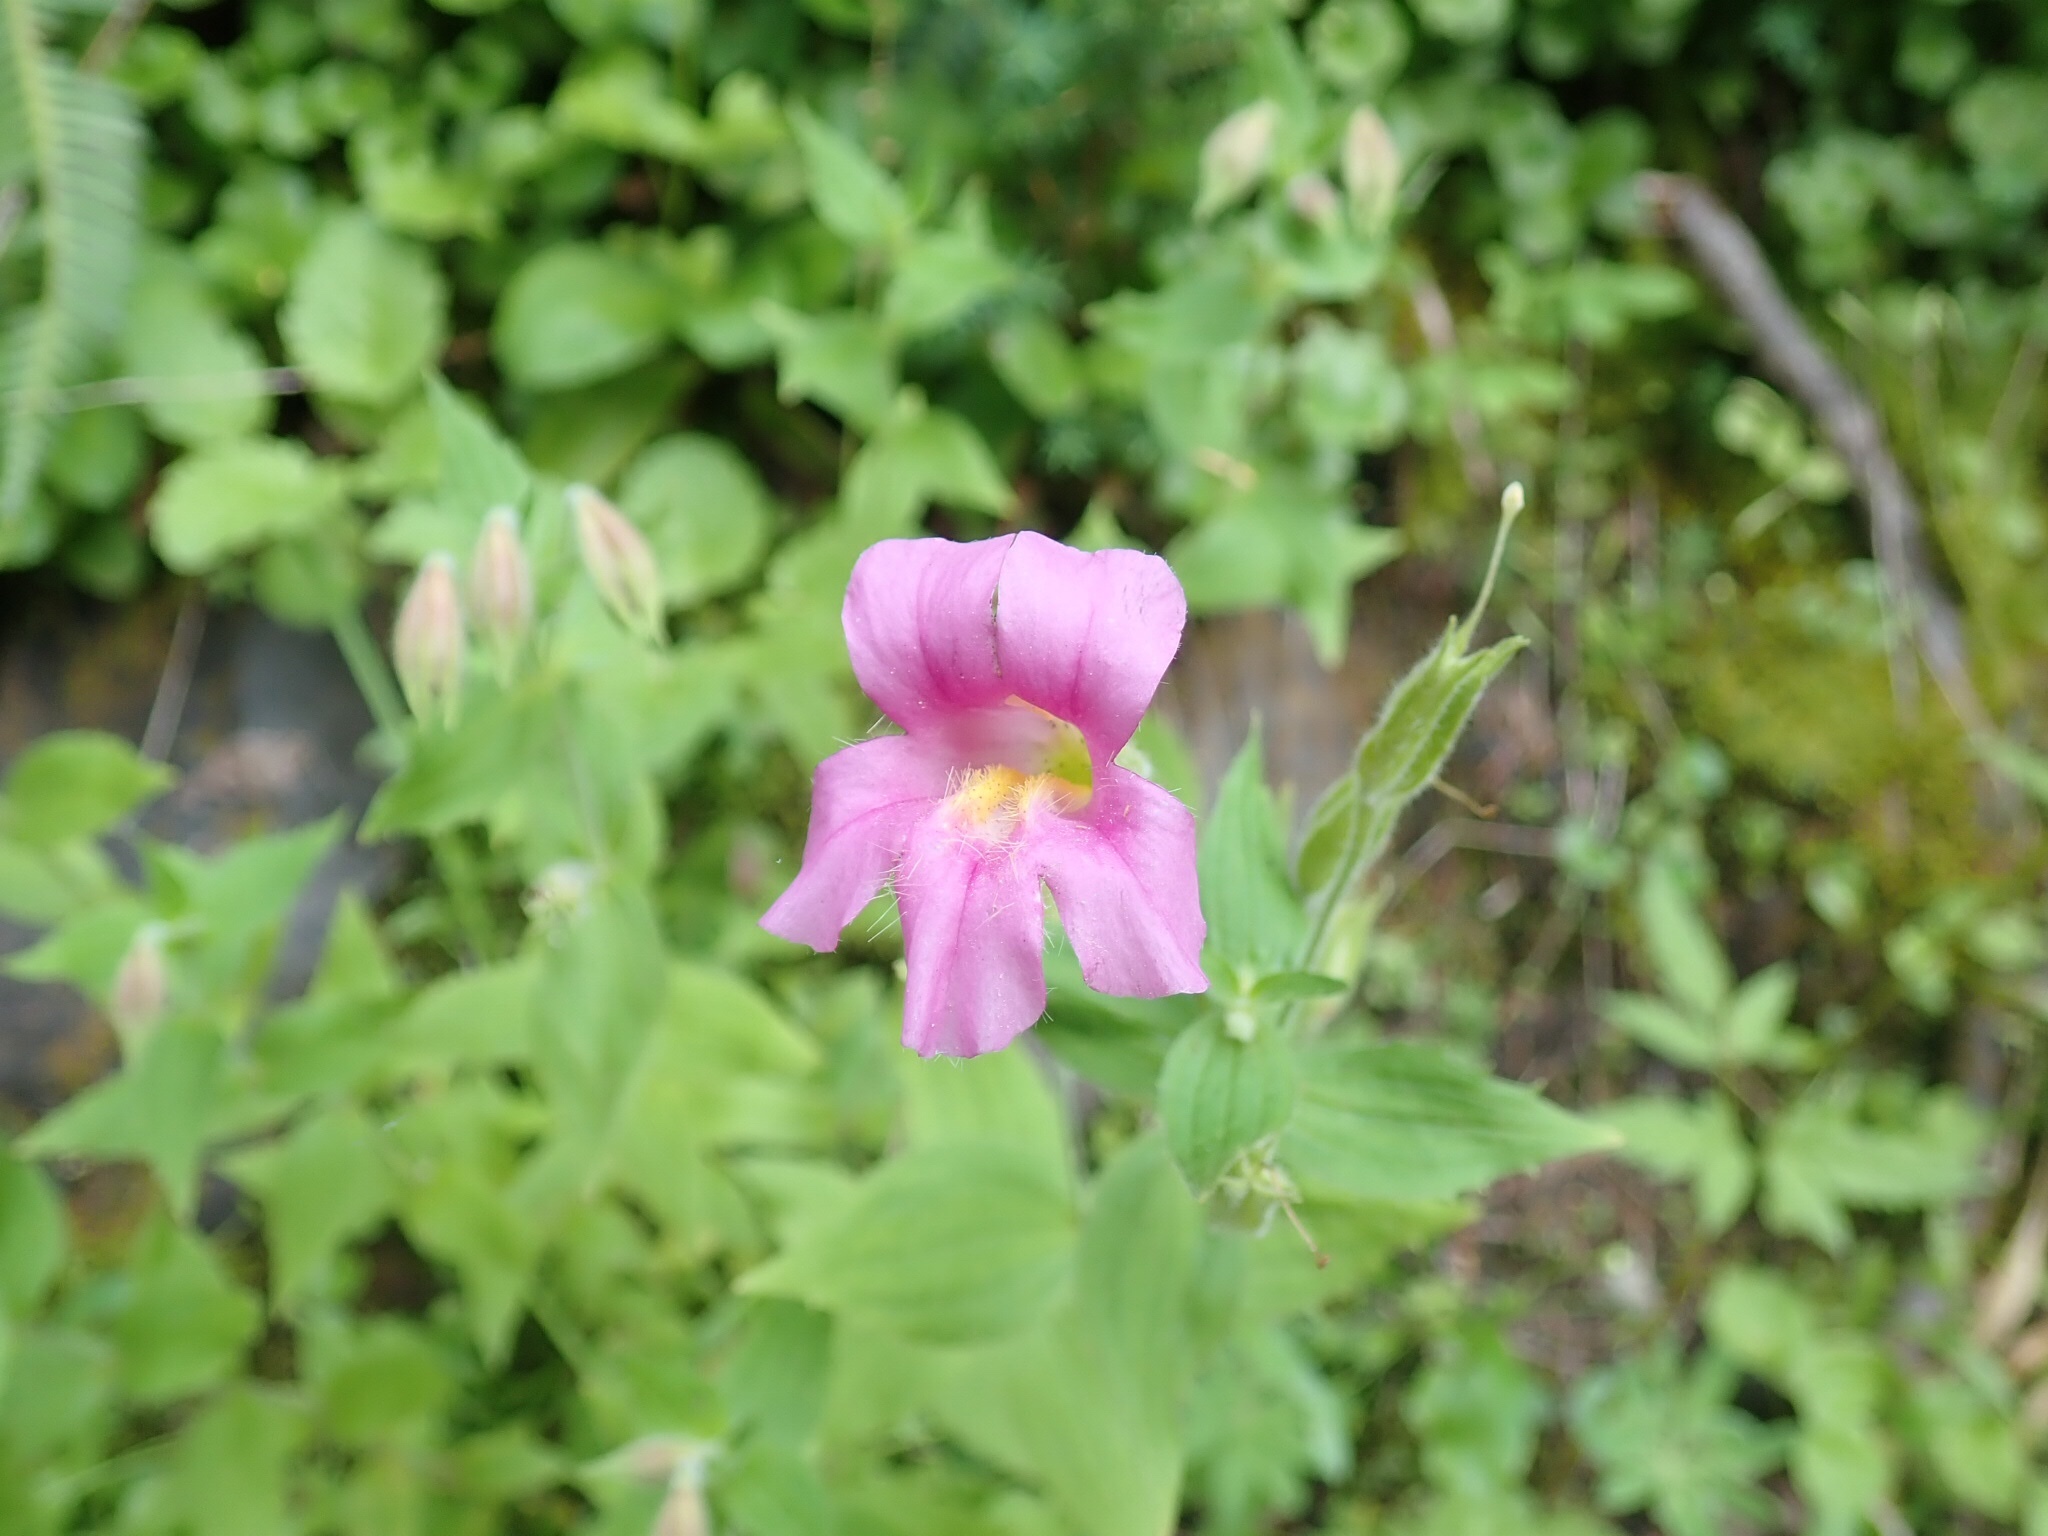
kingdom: Plantae
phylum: Tracheophyta
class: Magnoliopsida
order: Lamiales
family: Phrymaceae
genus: Erythranthe
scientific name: Erythranthe lewisii
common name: Lewis's monkey-flower
